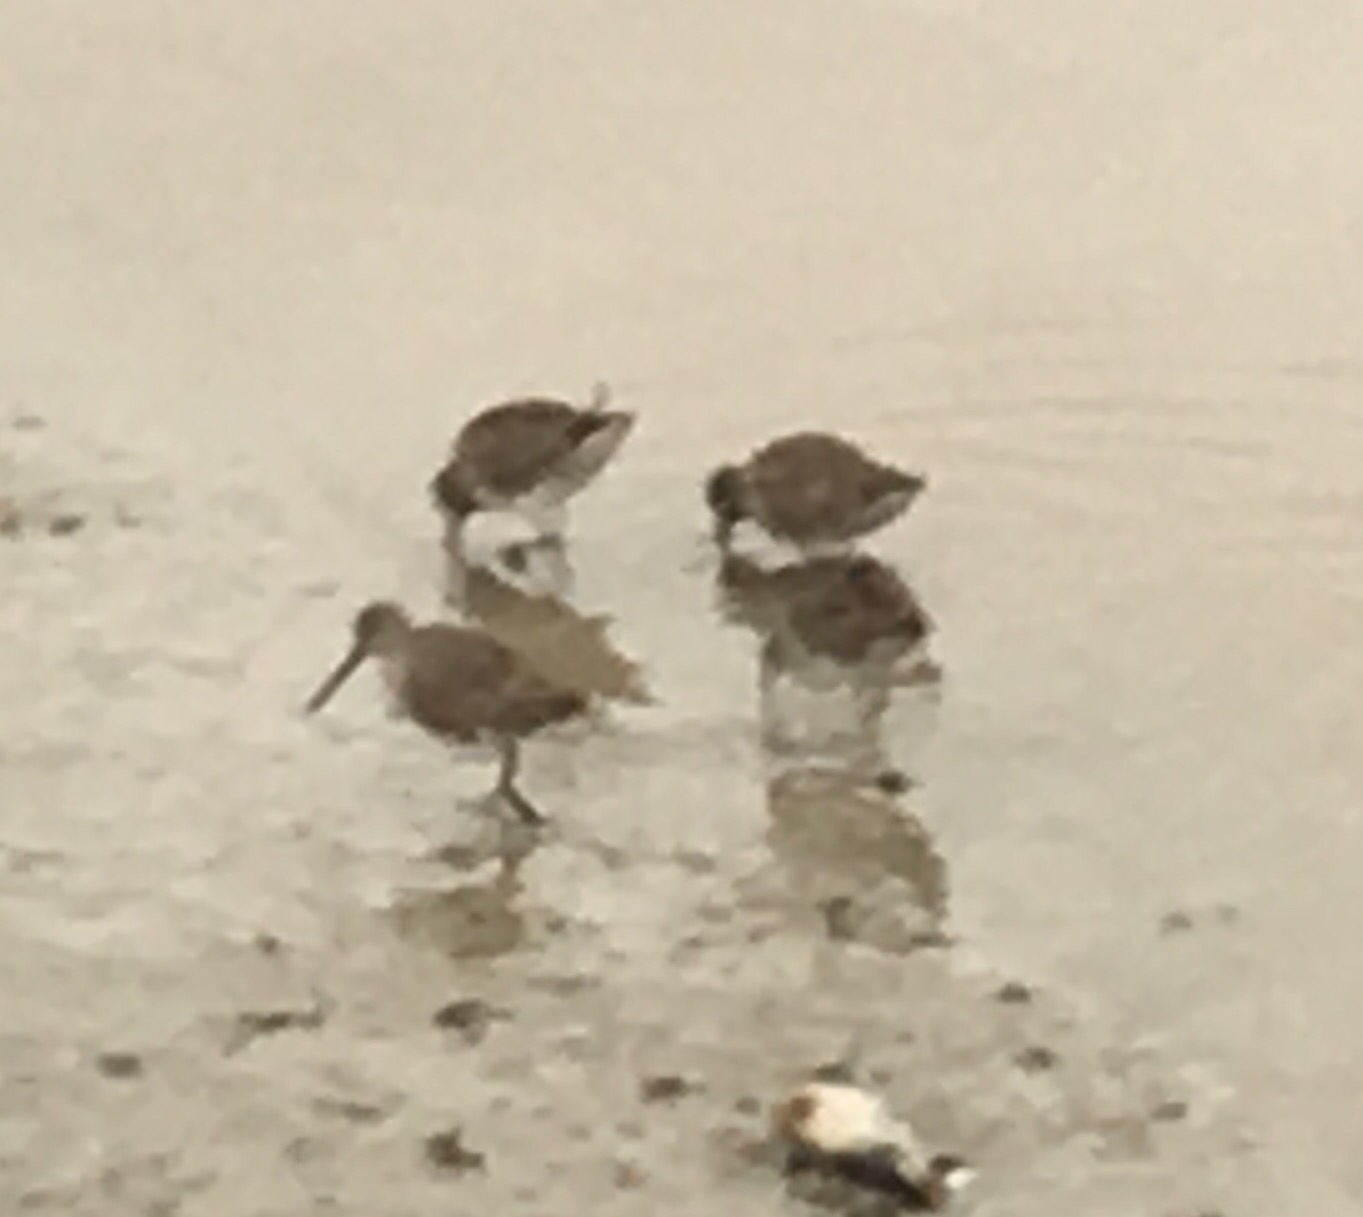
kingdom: Animalia
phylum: Chordata
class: Aves
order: Charadriiformes
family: Scolopacidae
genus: Limnodromus
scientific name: Limnodromus
